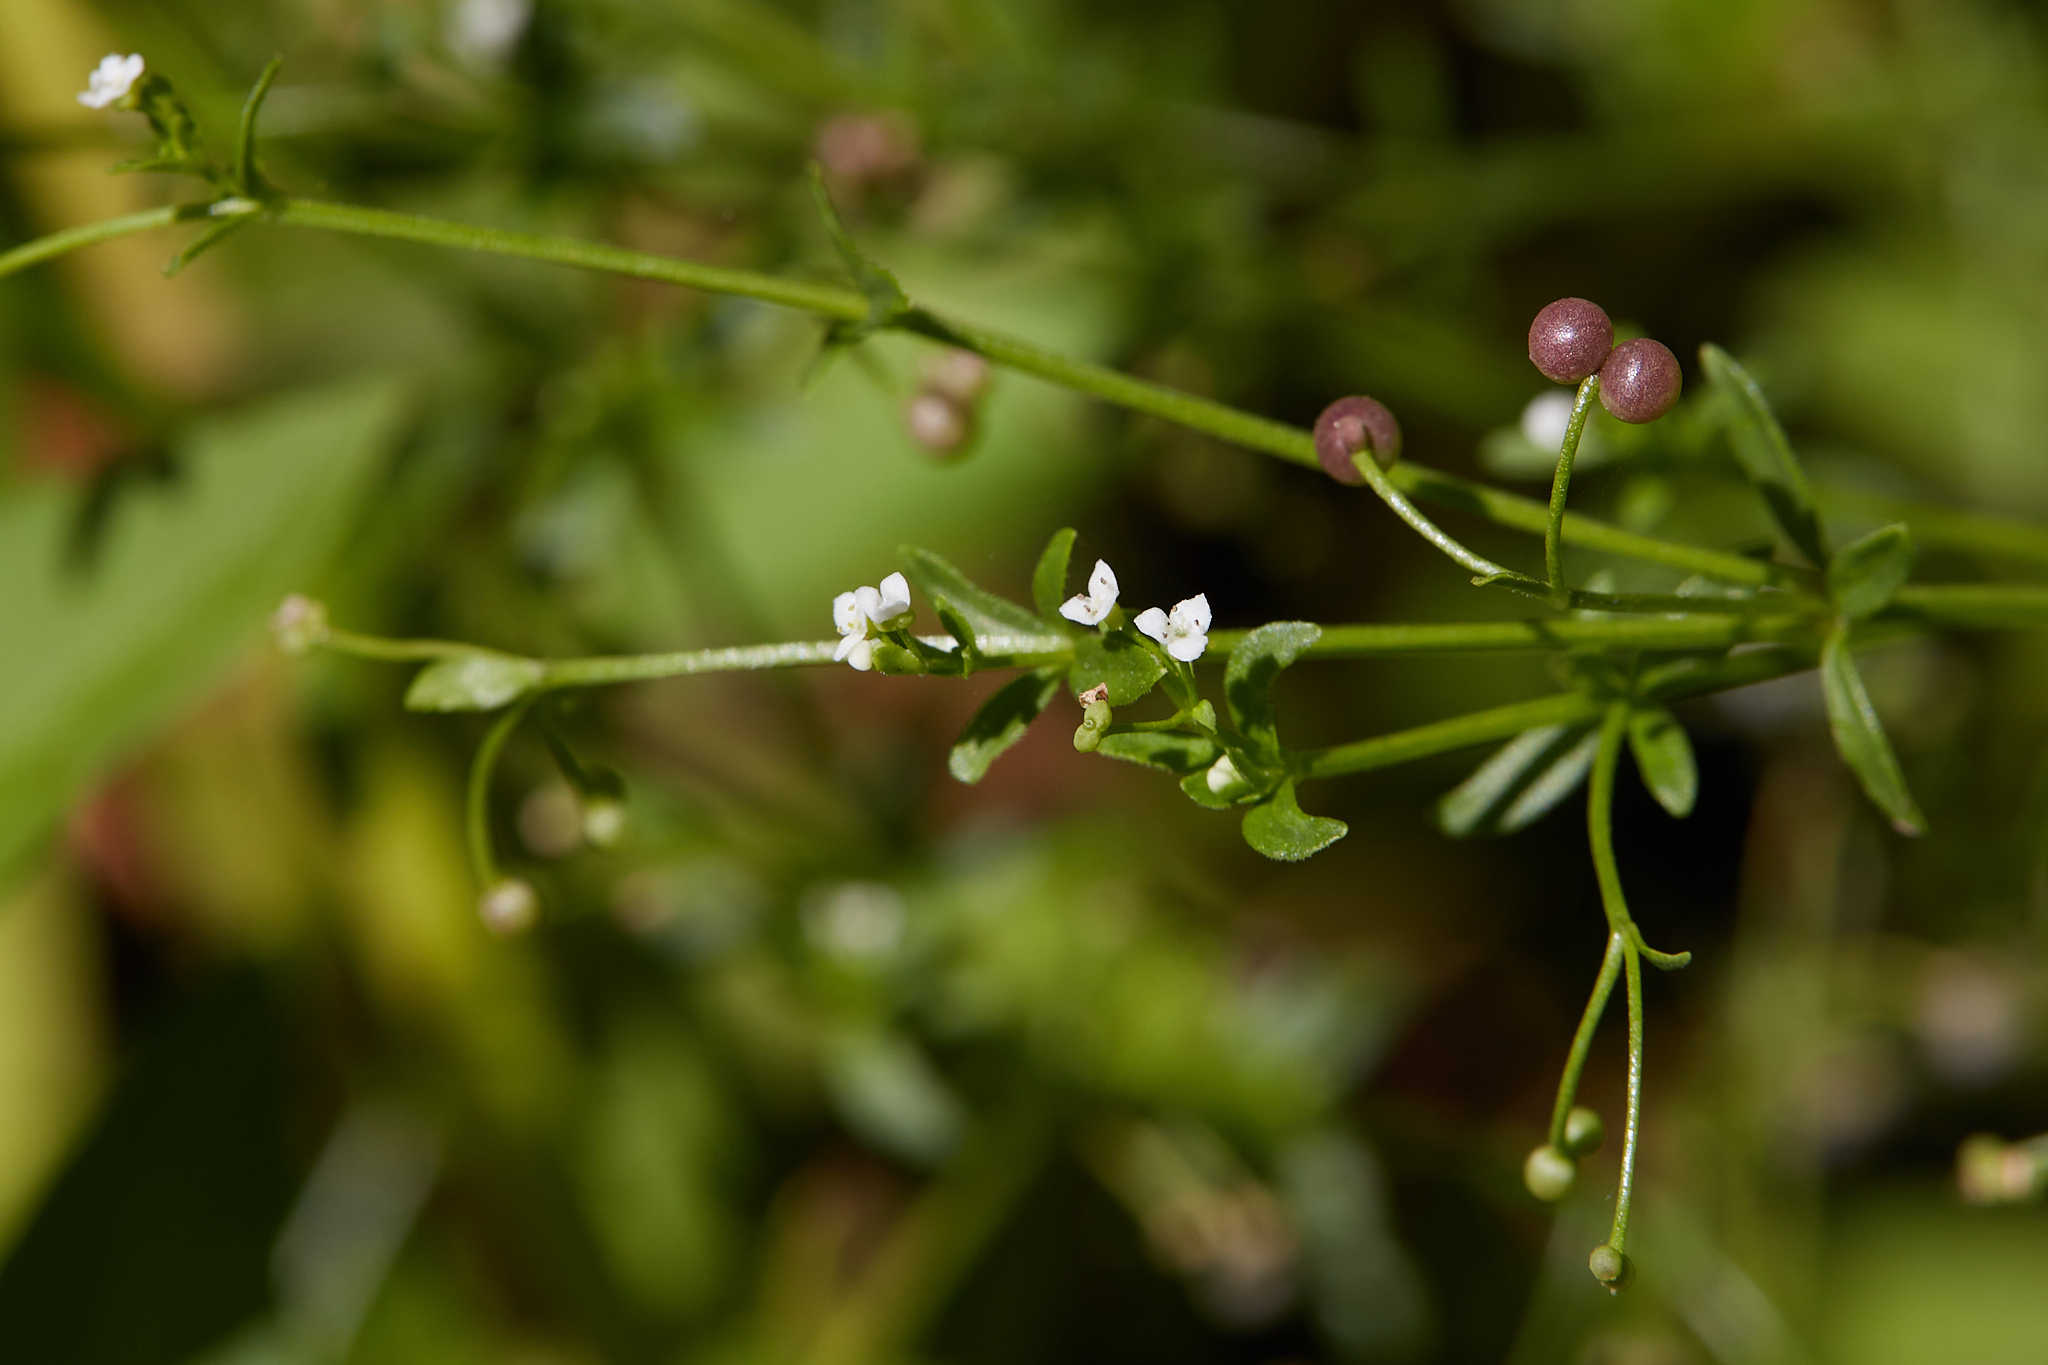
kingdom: Plantae
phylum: Tracheophyta
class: Magnoliopsida
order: Gentianales
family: Rubiaceae
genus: Galium
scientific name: Galium trifidum
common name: Small bedstraw
